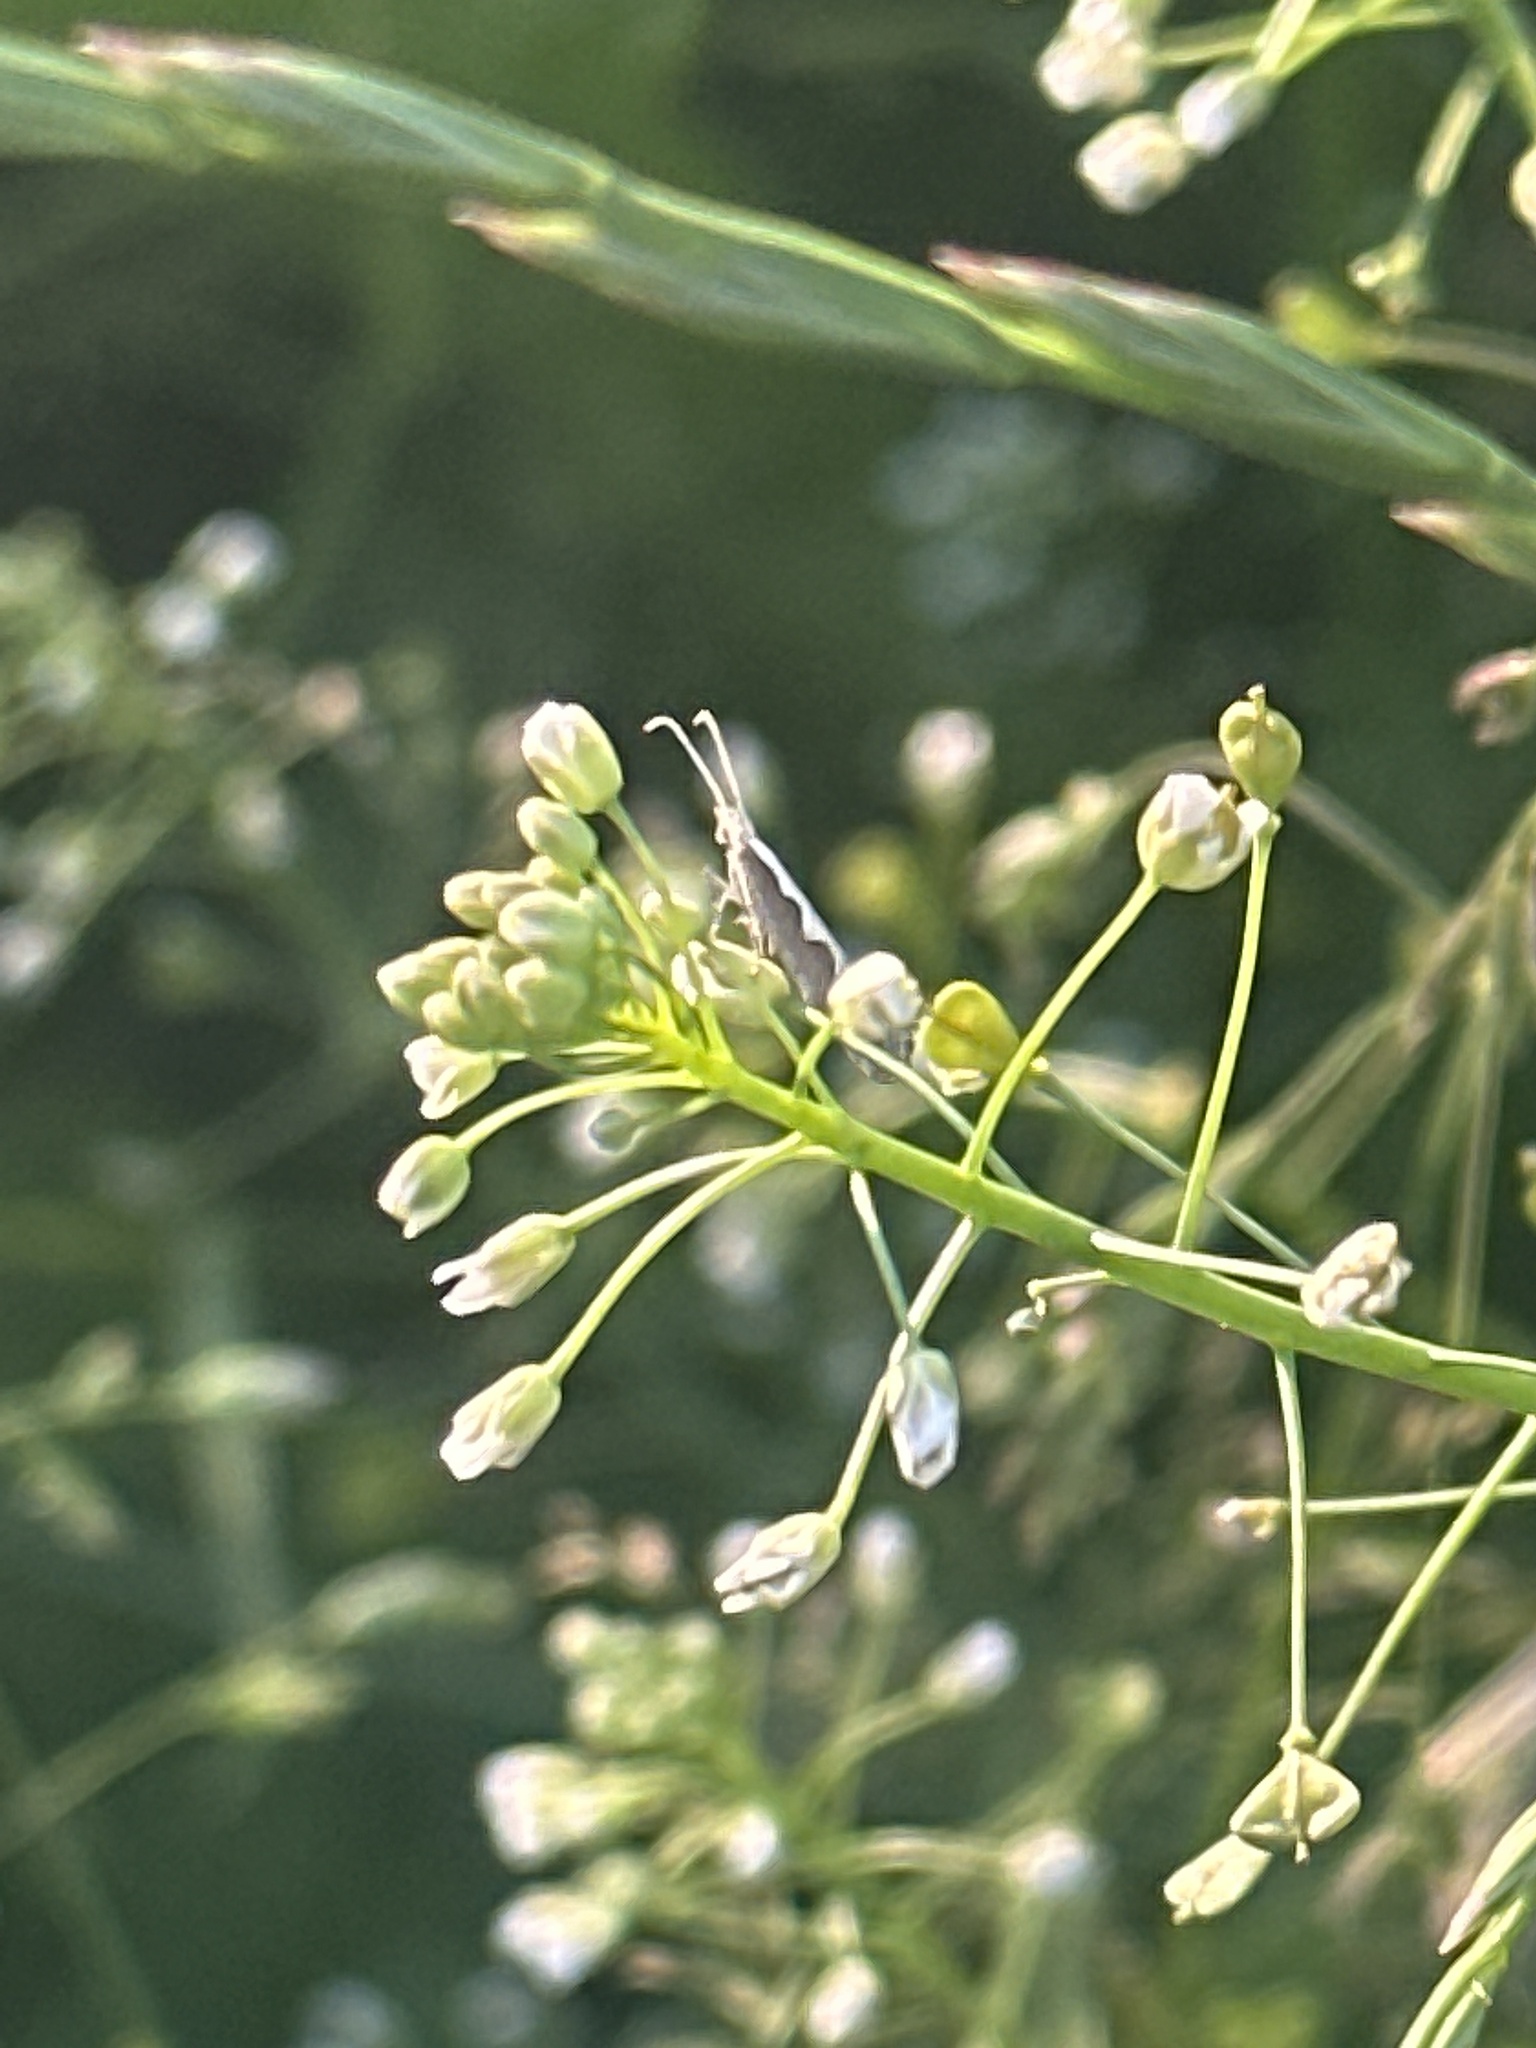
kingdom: Animalia
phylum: Arthropoda
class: Insecta
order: Lepidoptera
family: Plutellidae
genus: Plutella
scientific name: Plutella xylostella
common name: Diamond-back moth
